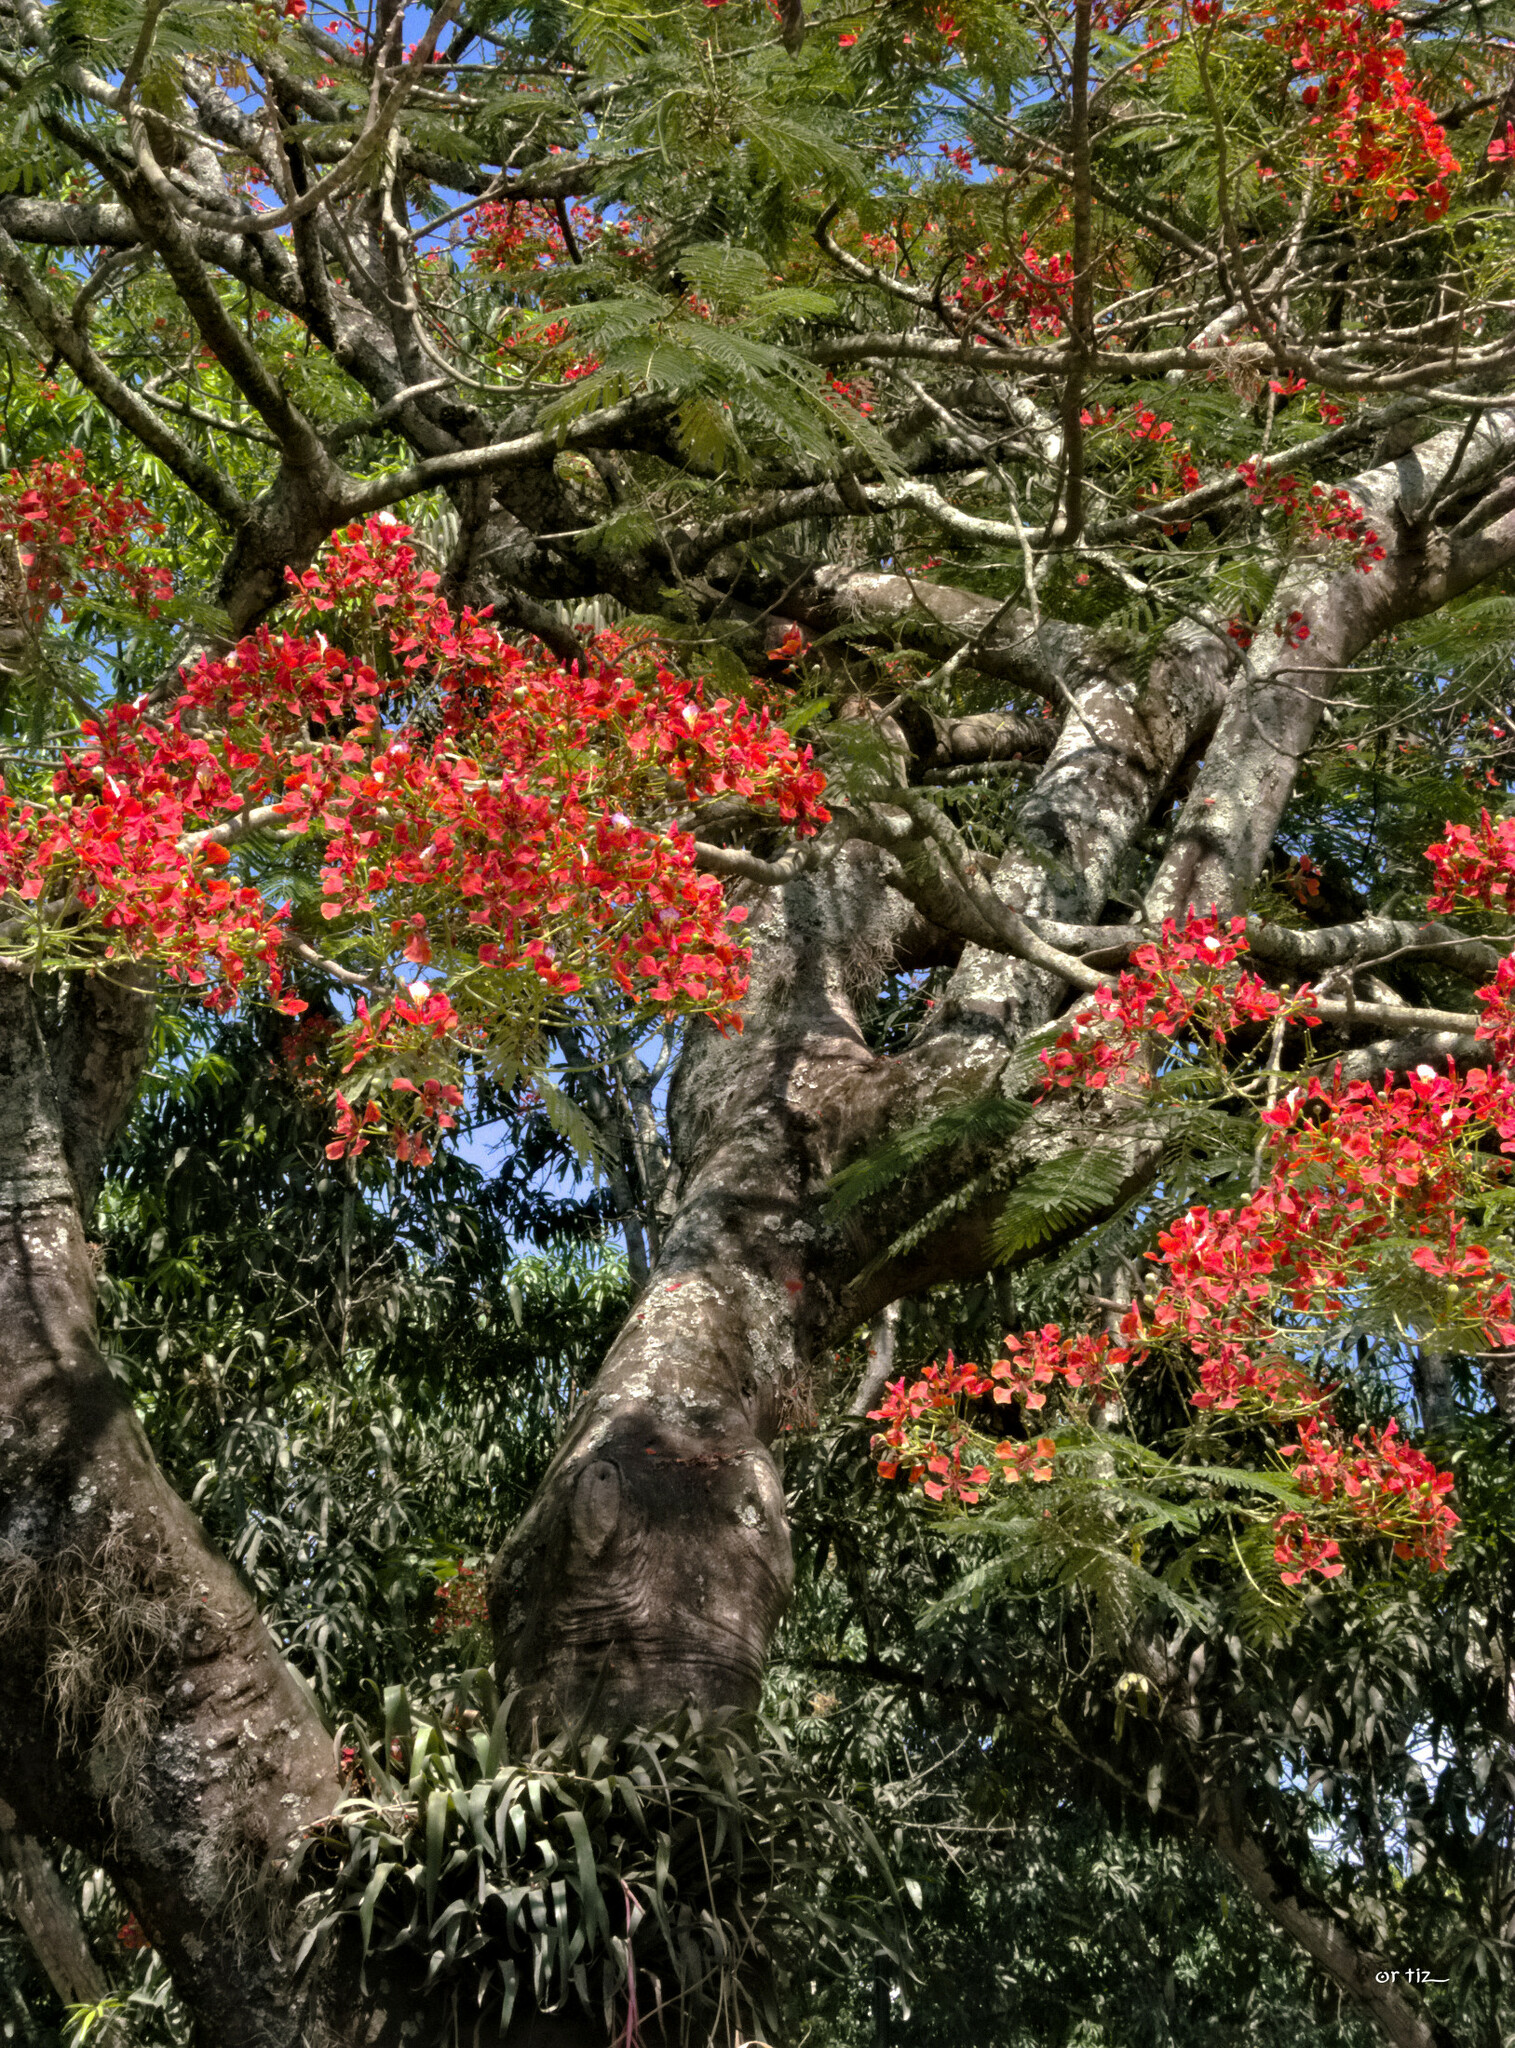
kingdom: Plantae
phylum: Tracheophyta
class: Magnoliopsida
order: Fabales
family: Fabaceae
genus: Delonix
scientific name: Delonix regia
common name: Royal poinciana
